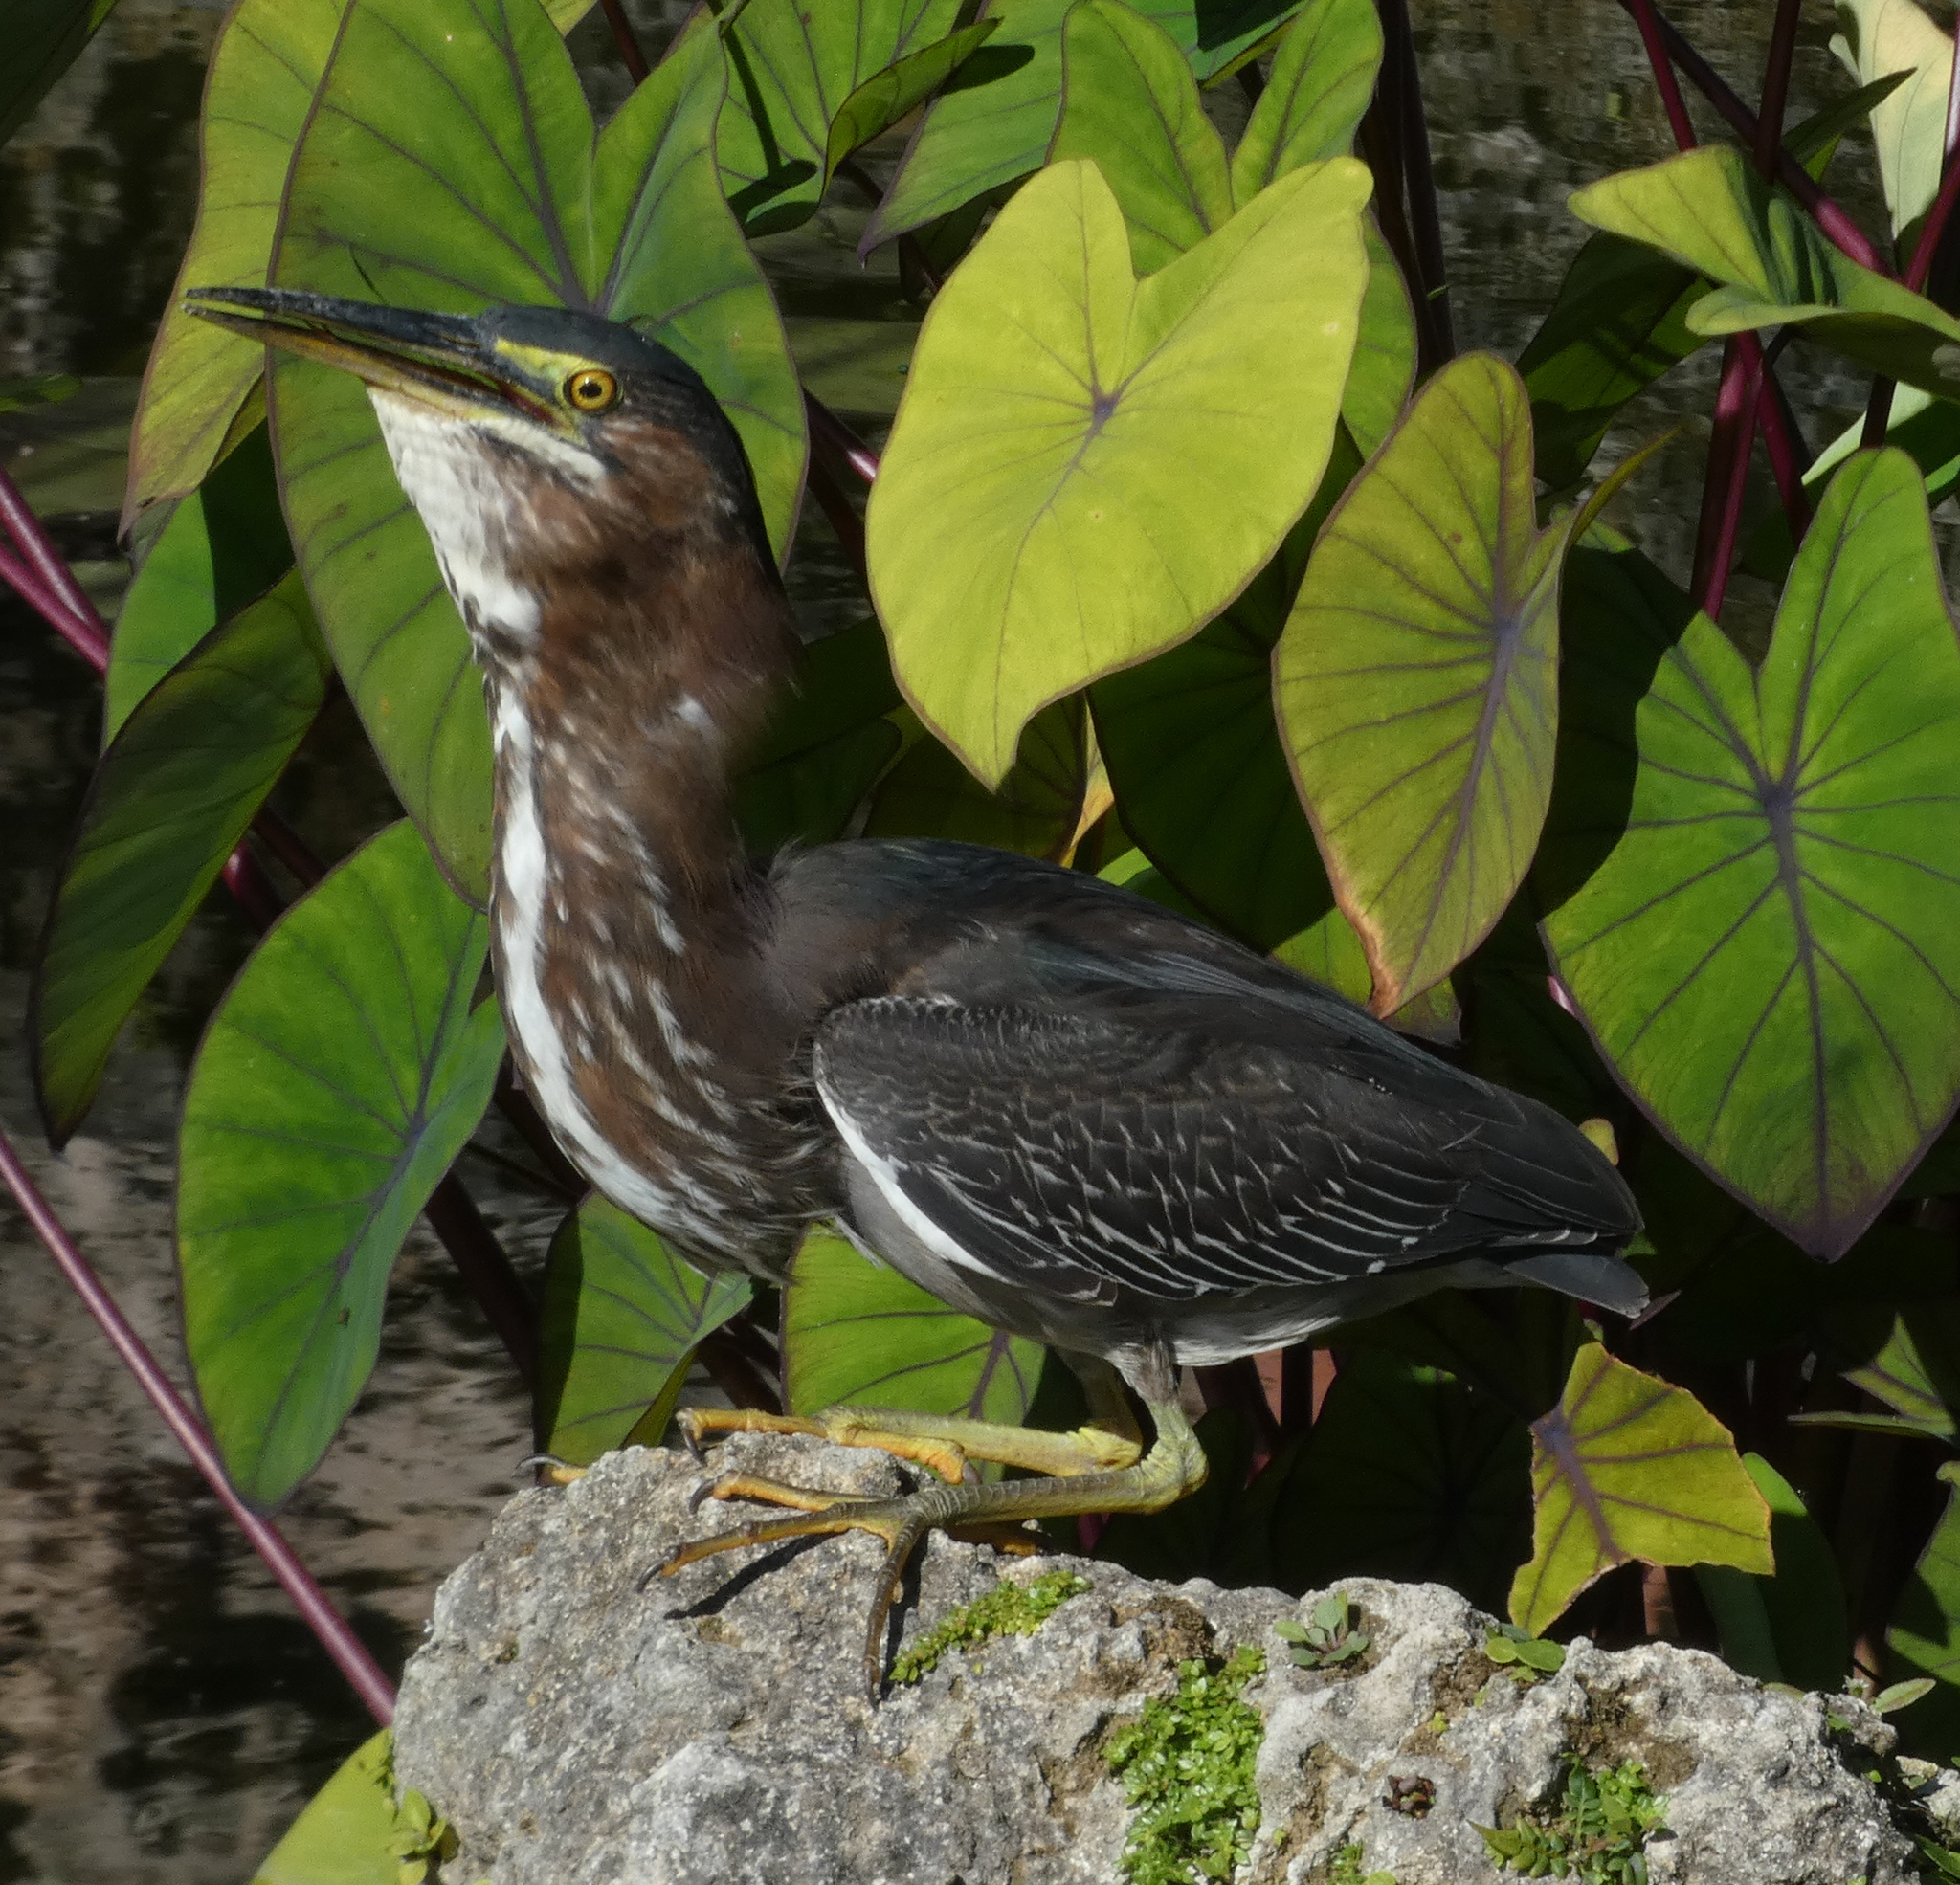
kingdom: Animalia
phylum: Chordata
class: Aves
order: Pelecaniformes
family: Ardeidae
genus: Butorides
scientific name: Butorides virescens
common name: Green heron
